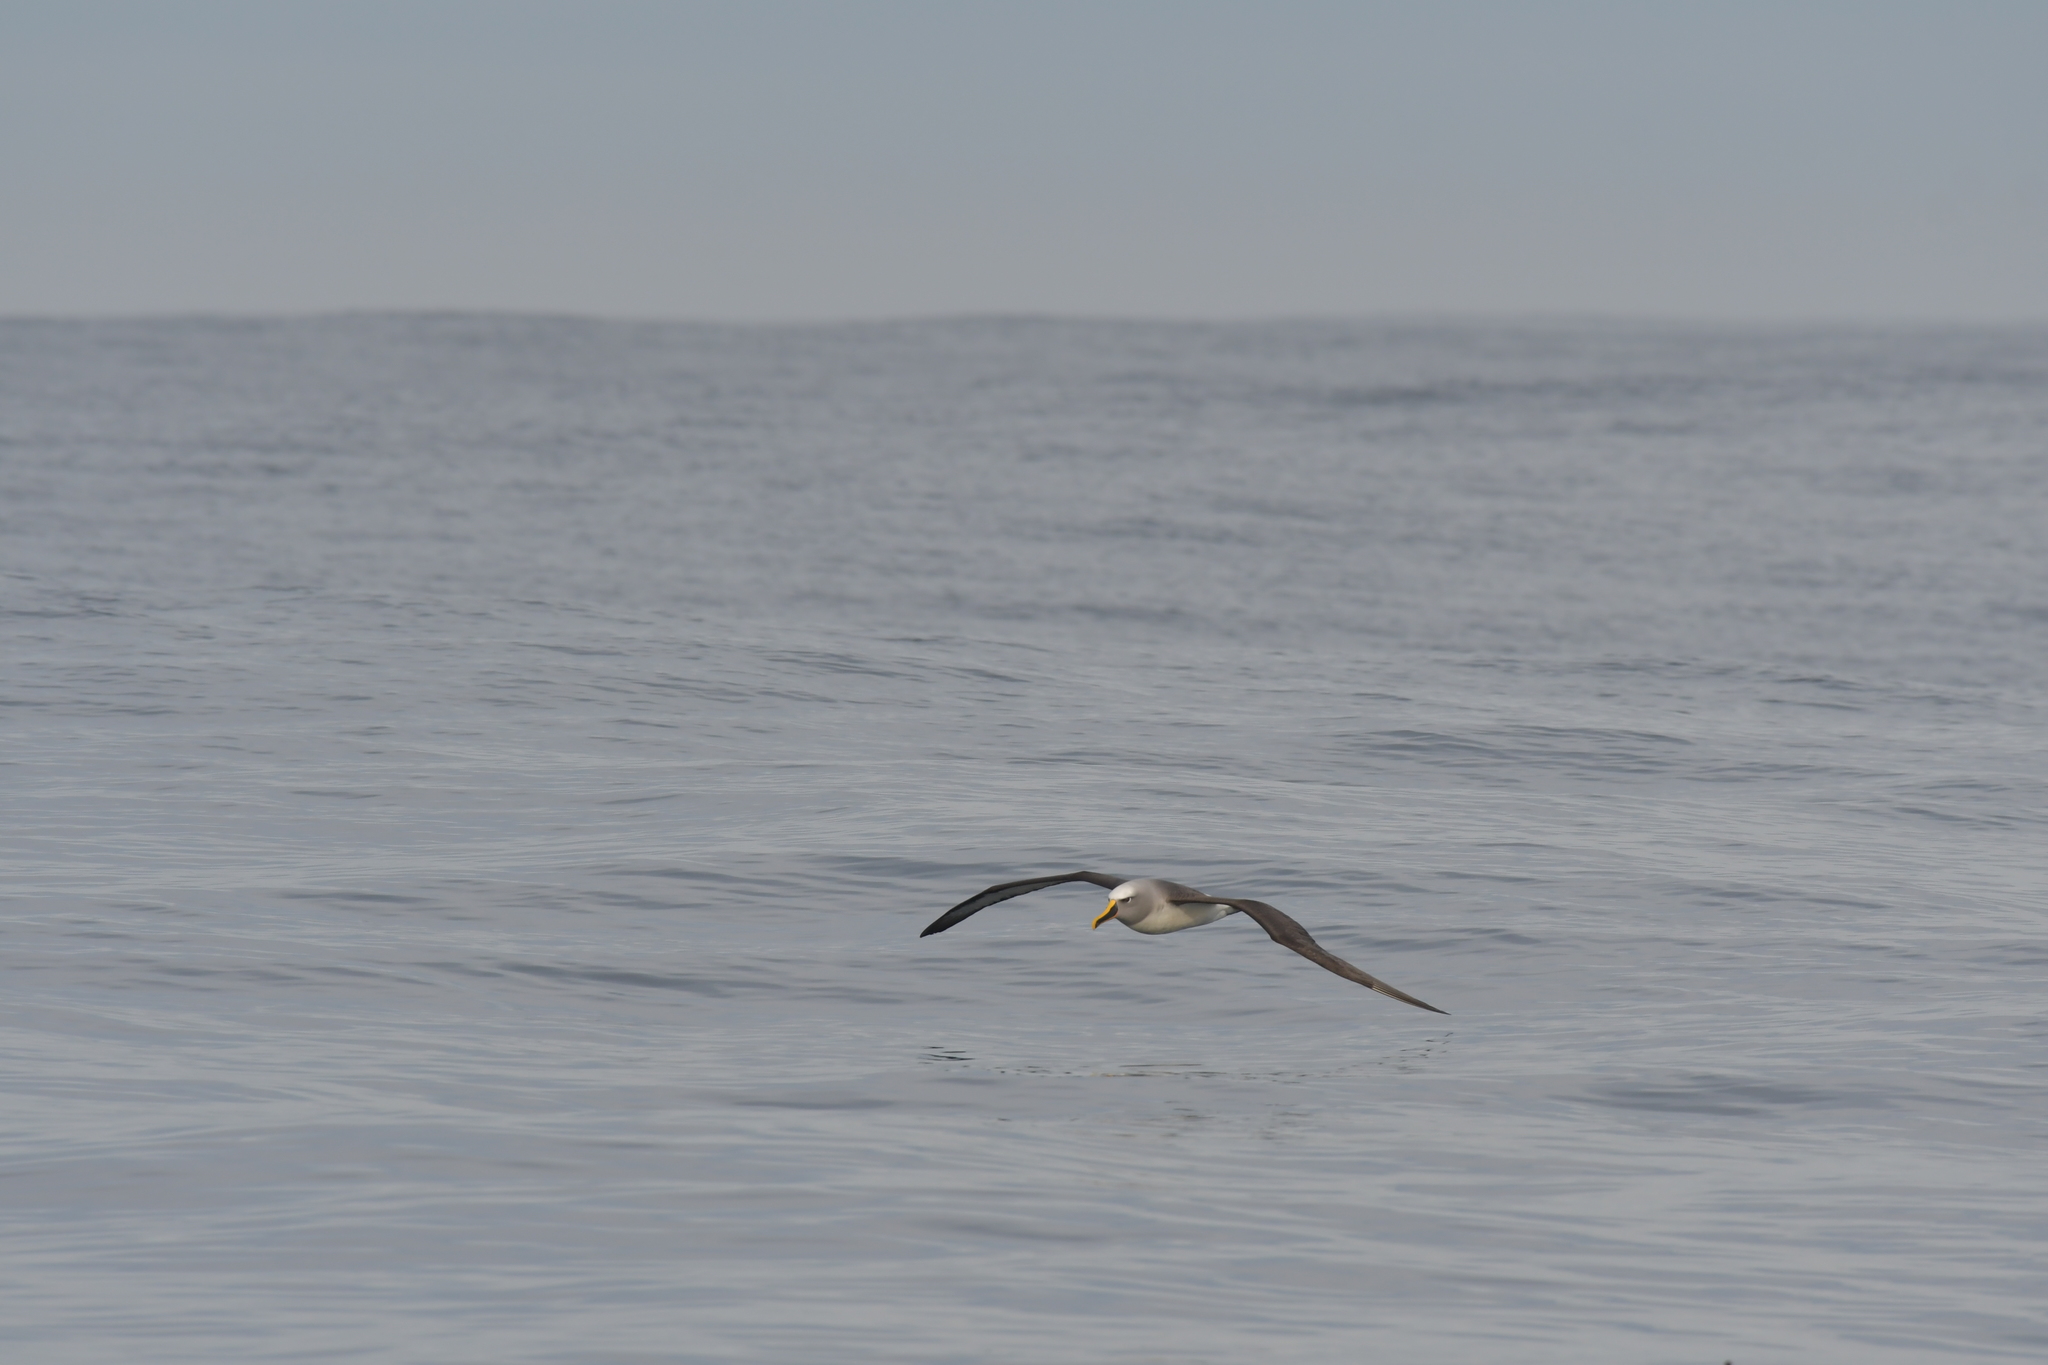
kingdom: Animalia
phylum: Chordata
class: Aves
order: Procellariiformes
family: Diomedeidae
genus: Thalassarche
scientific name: Thalassarche bulleri
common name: Buller's albatross
